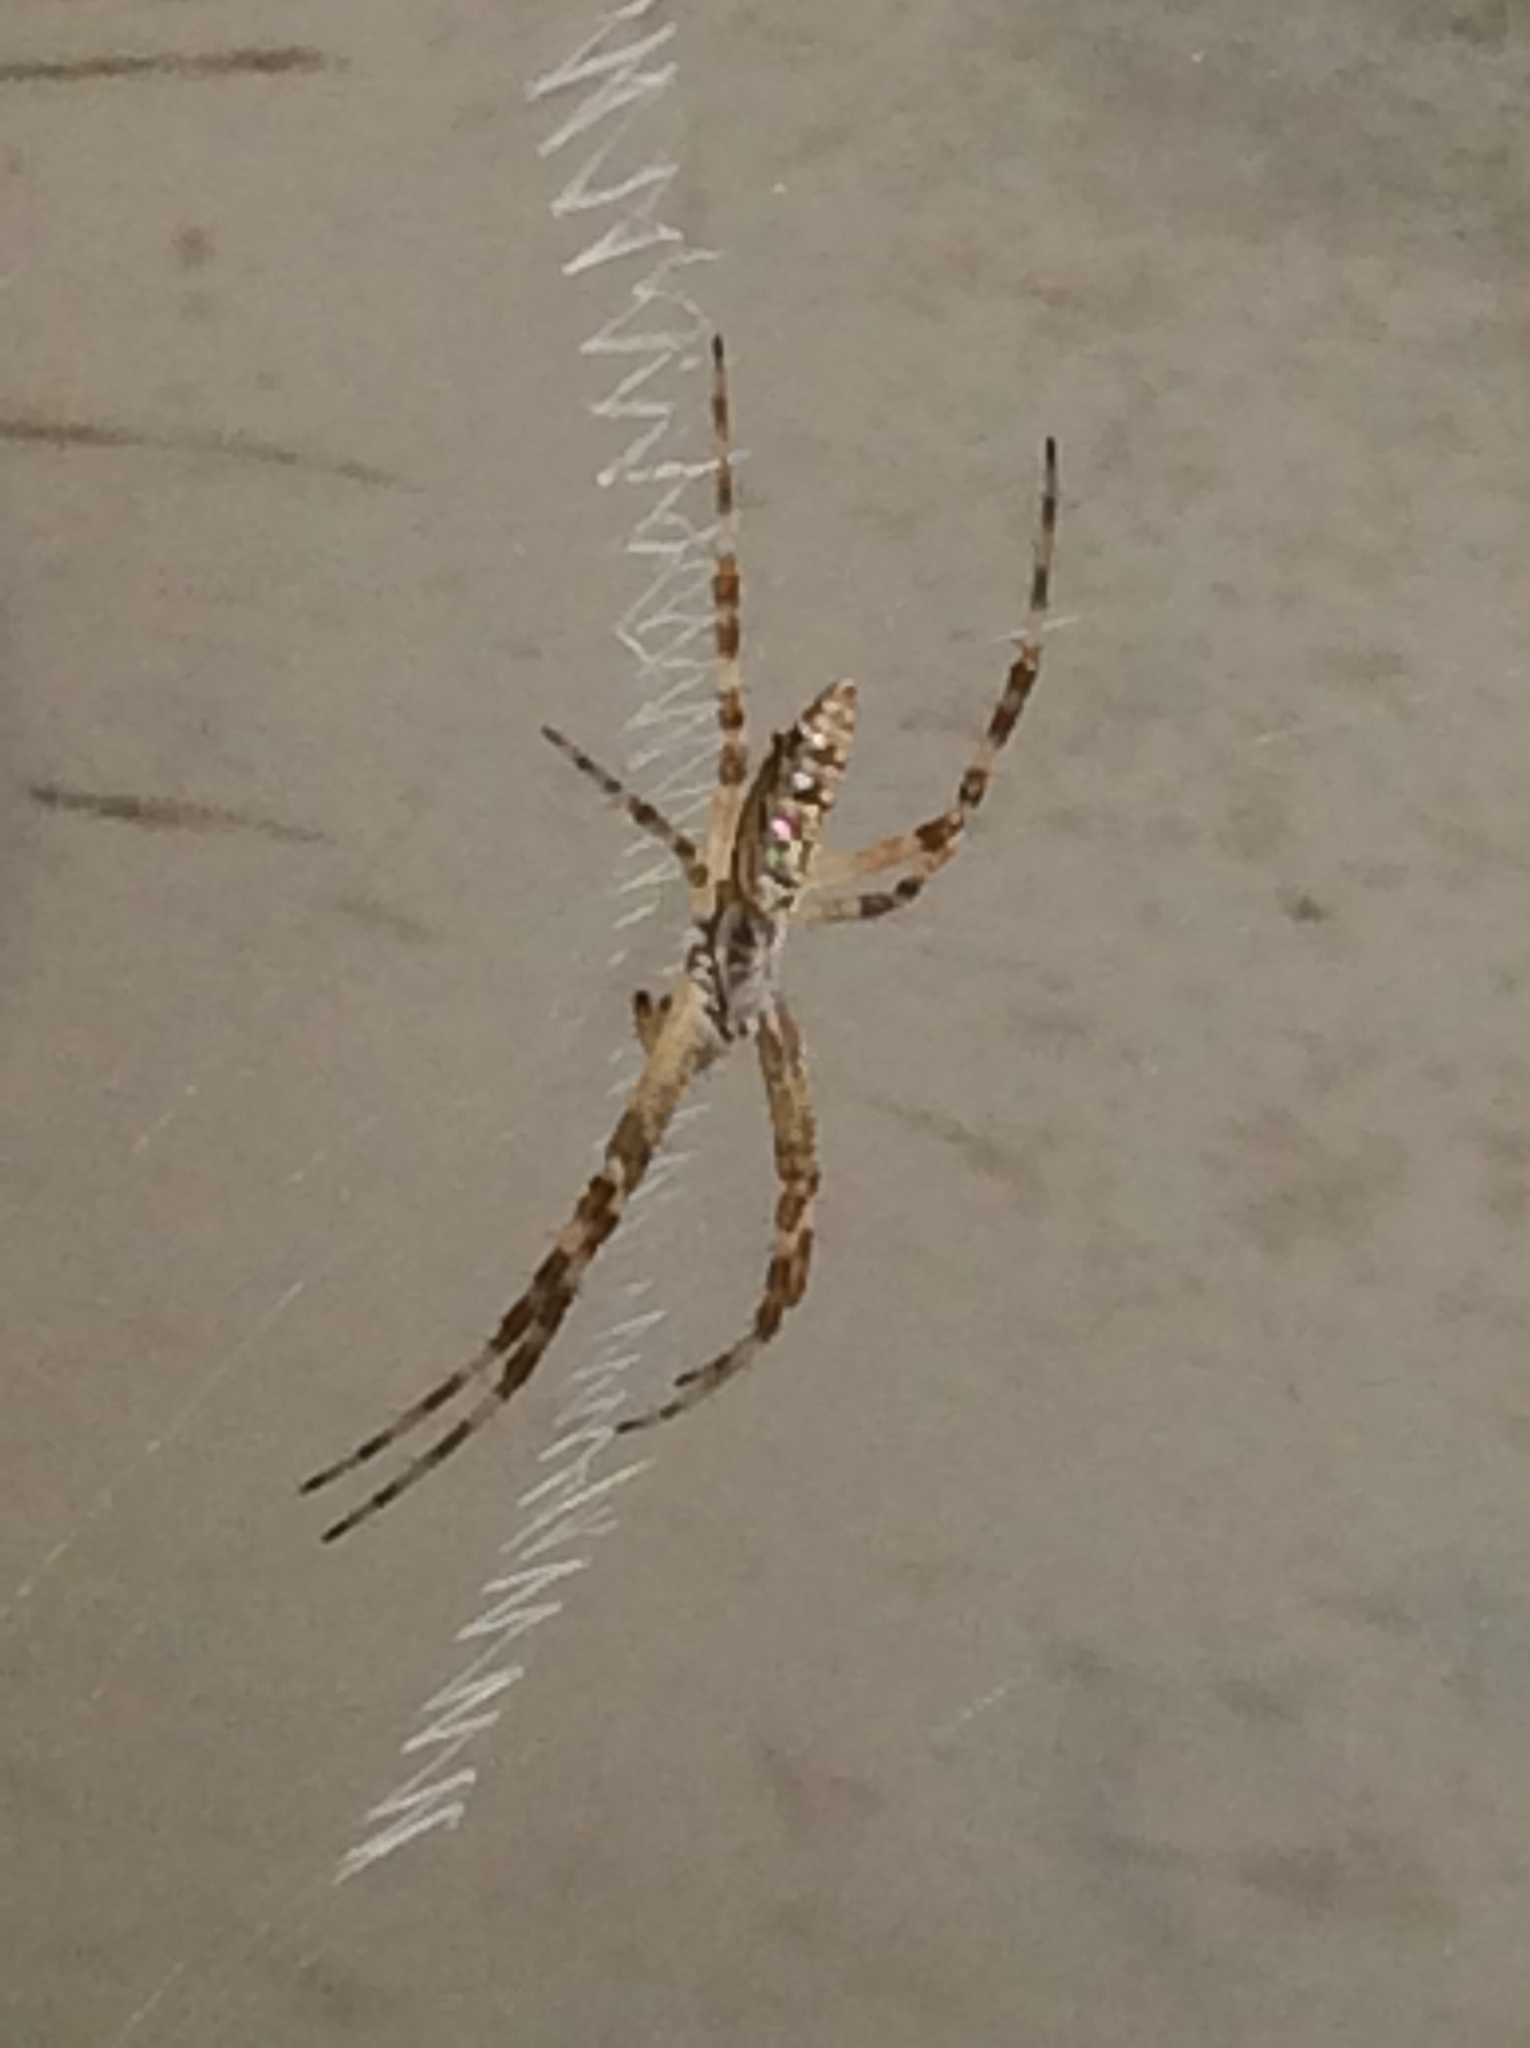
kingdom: Animalia
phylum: Arthropoda
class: Arachnida
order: Araneae
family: Araneidae
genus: Argiope
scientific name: Argiope aurantia
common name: Orb weavers
